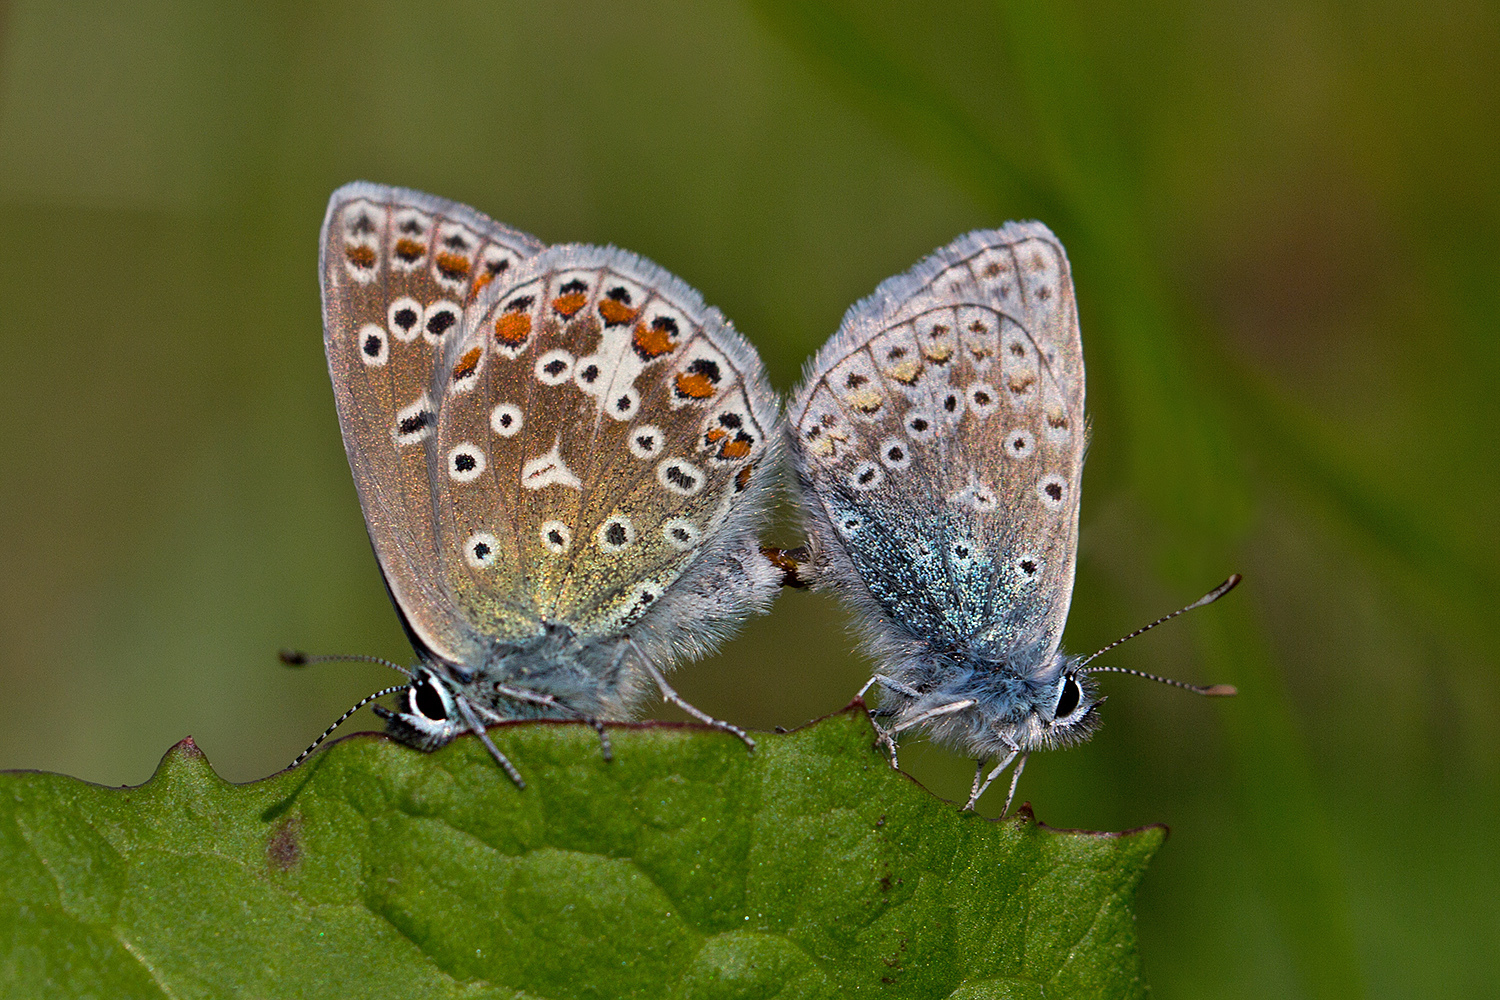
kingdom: Animalia
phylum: Arthropoda
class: Insecta
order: Lepidoptera
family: Lycaenidae
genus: Polyommatus
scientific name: Polyommatus icarus
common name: Common blue
